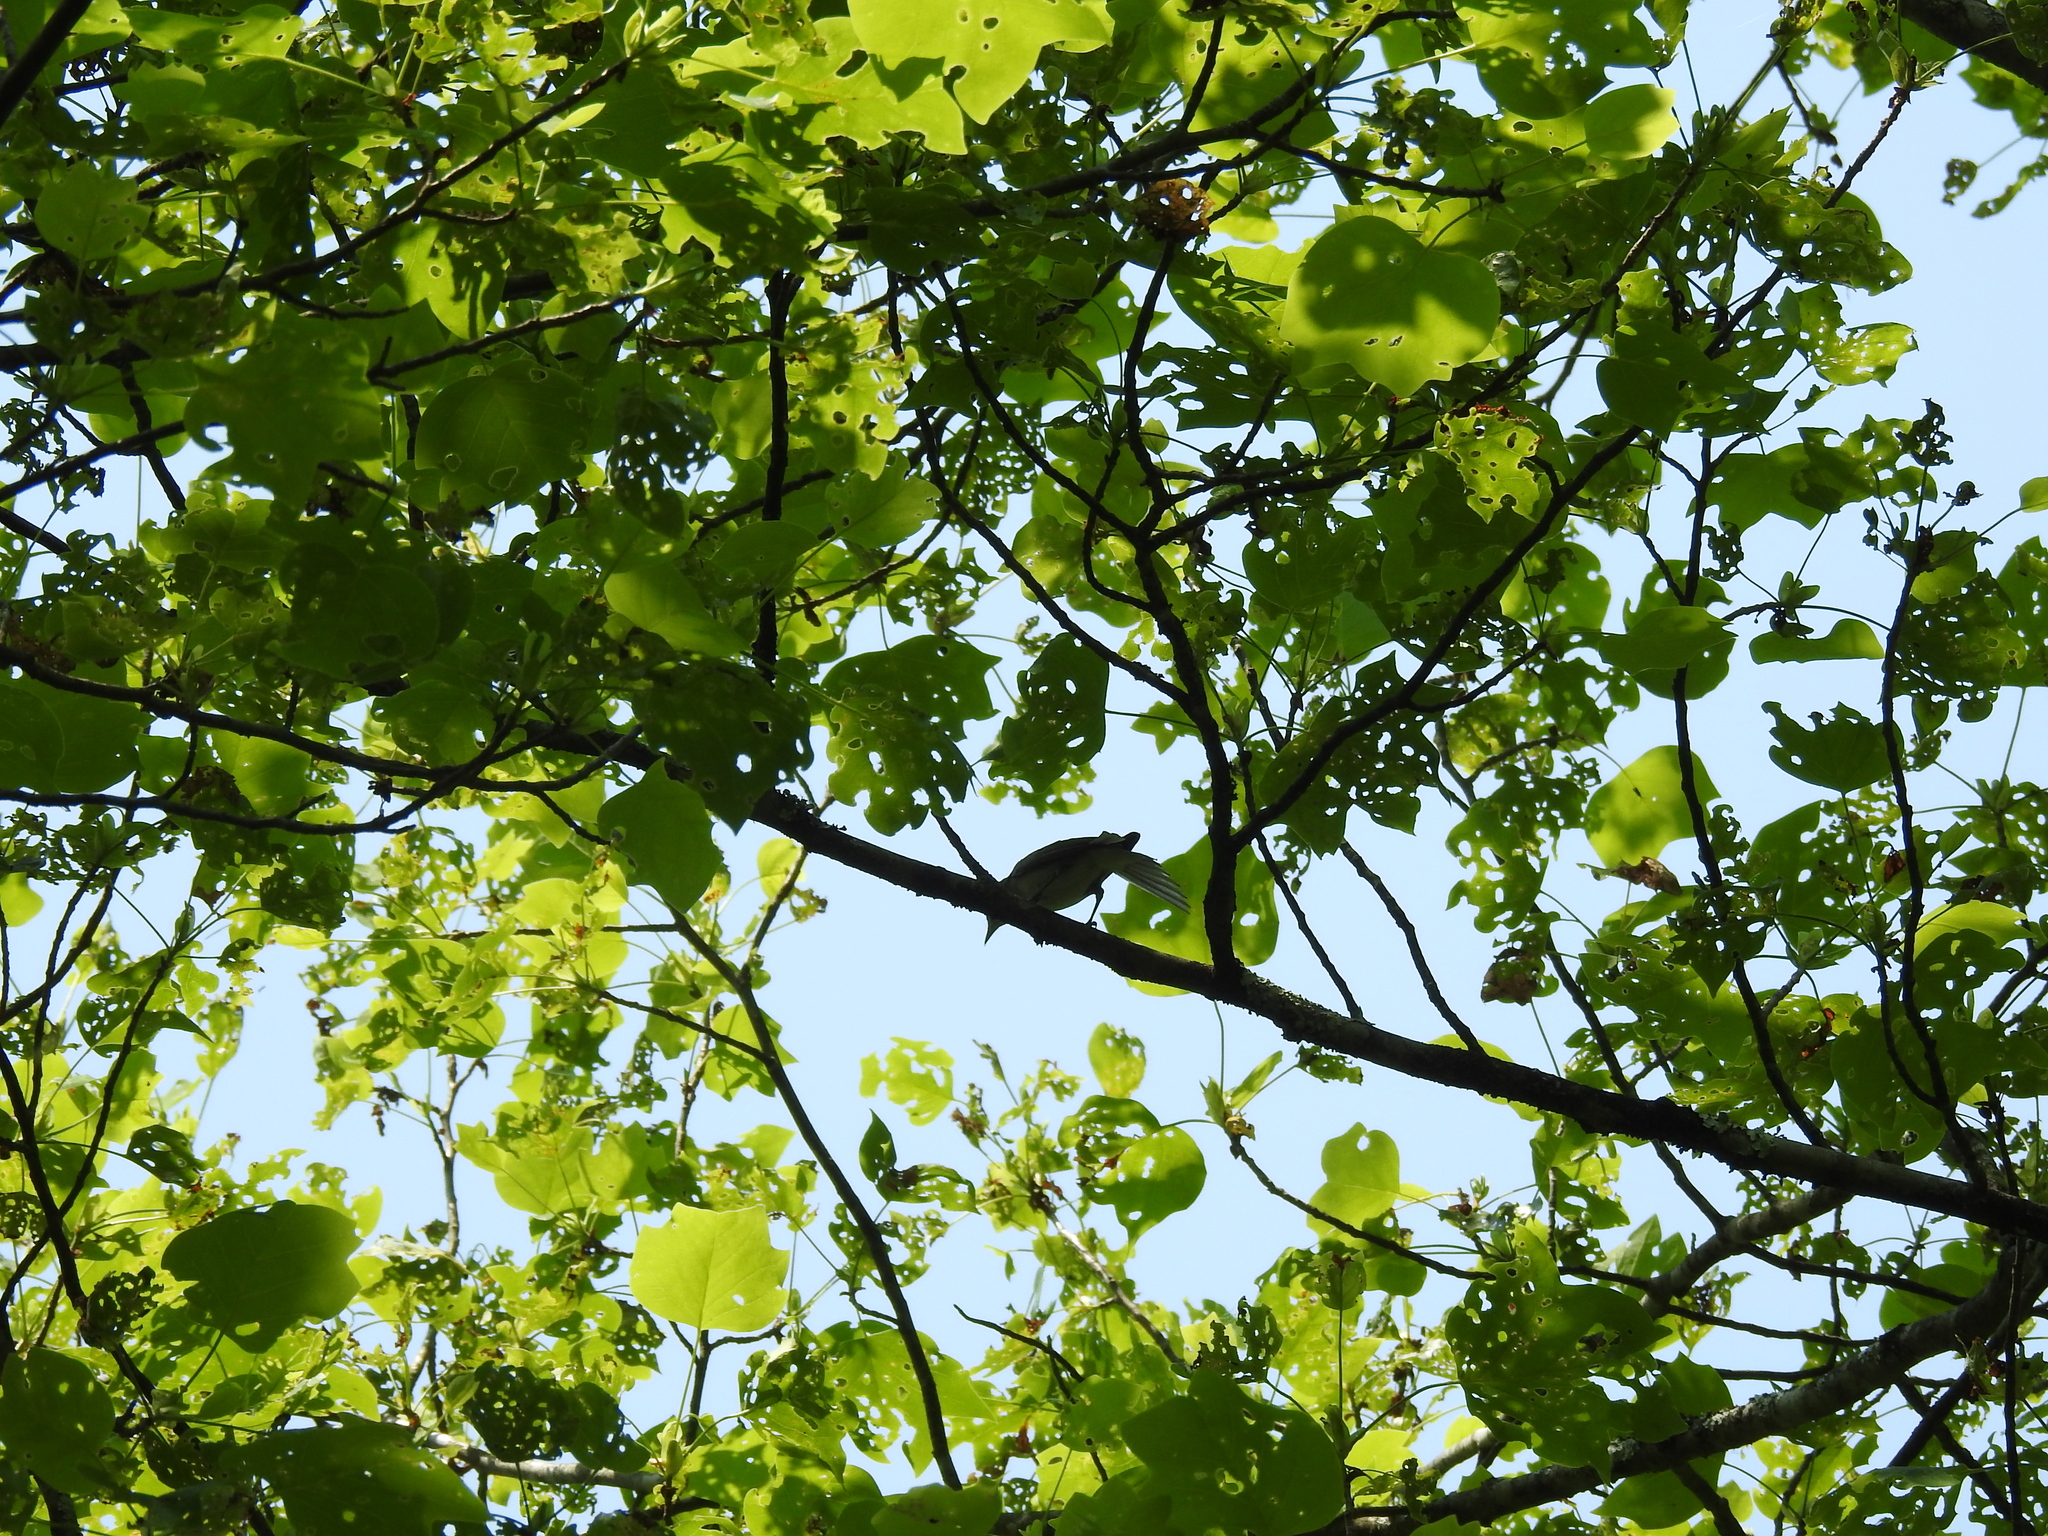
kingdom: Animalia
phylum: Chordata
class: Aves
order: Passeriformes
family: Vireonidae
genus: Vireo
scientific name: Vireo olivaceus
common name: Red-eyed vireo
